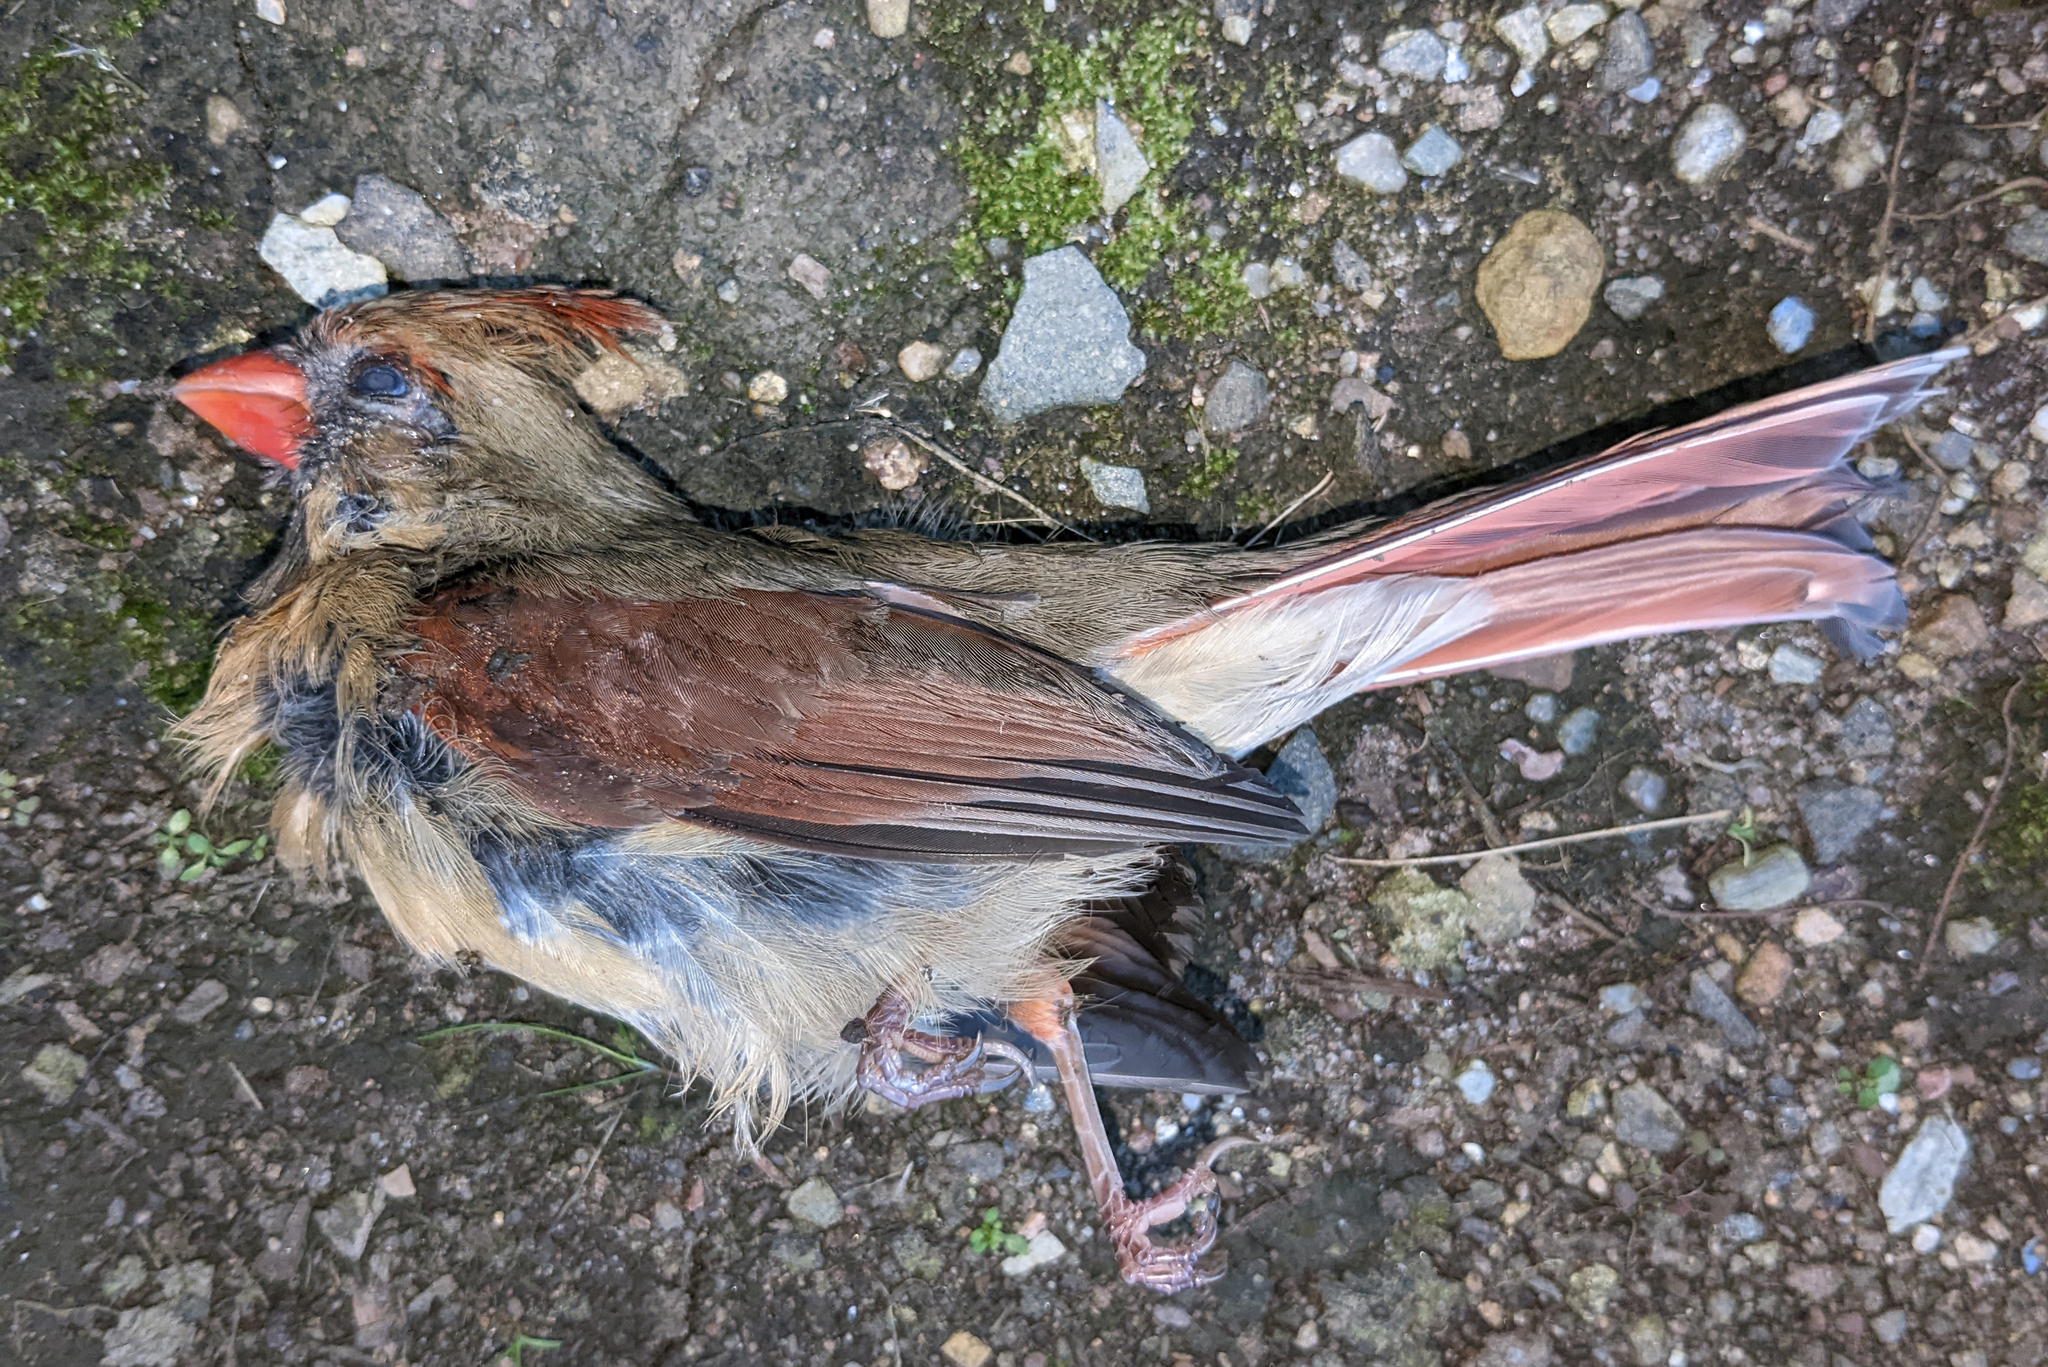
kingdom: Animalia
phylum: Chordata
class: Aves
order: Passeriformes
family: Cardinalidae
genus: Cardinalis
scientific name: Cardinalis cardinalis
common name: Northern cardinal
